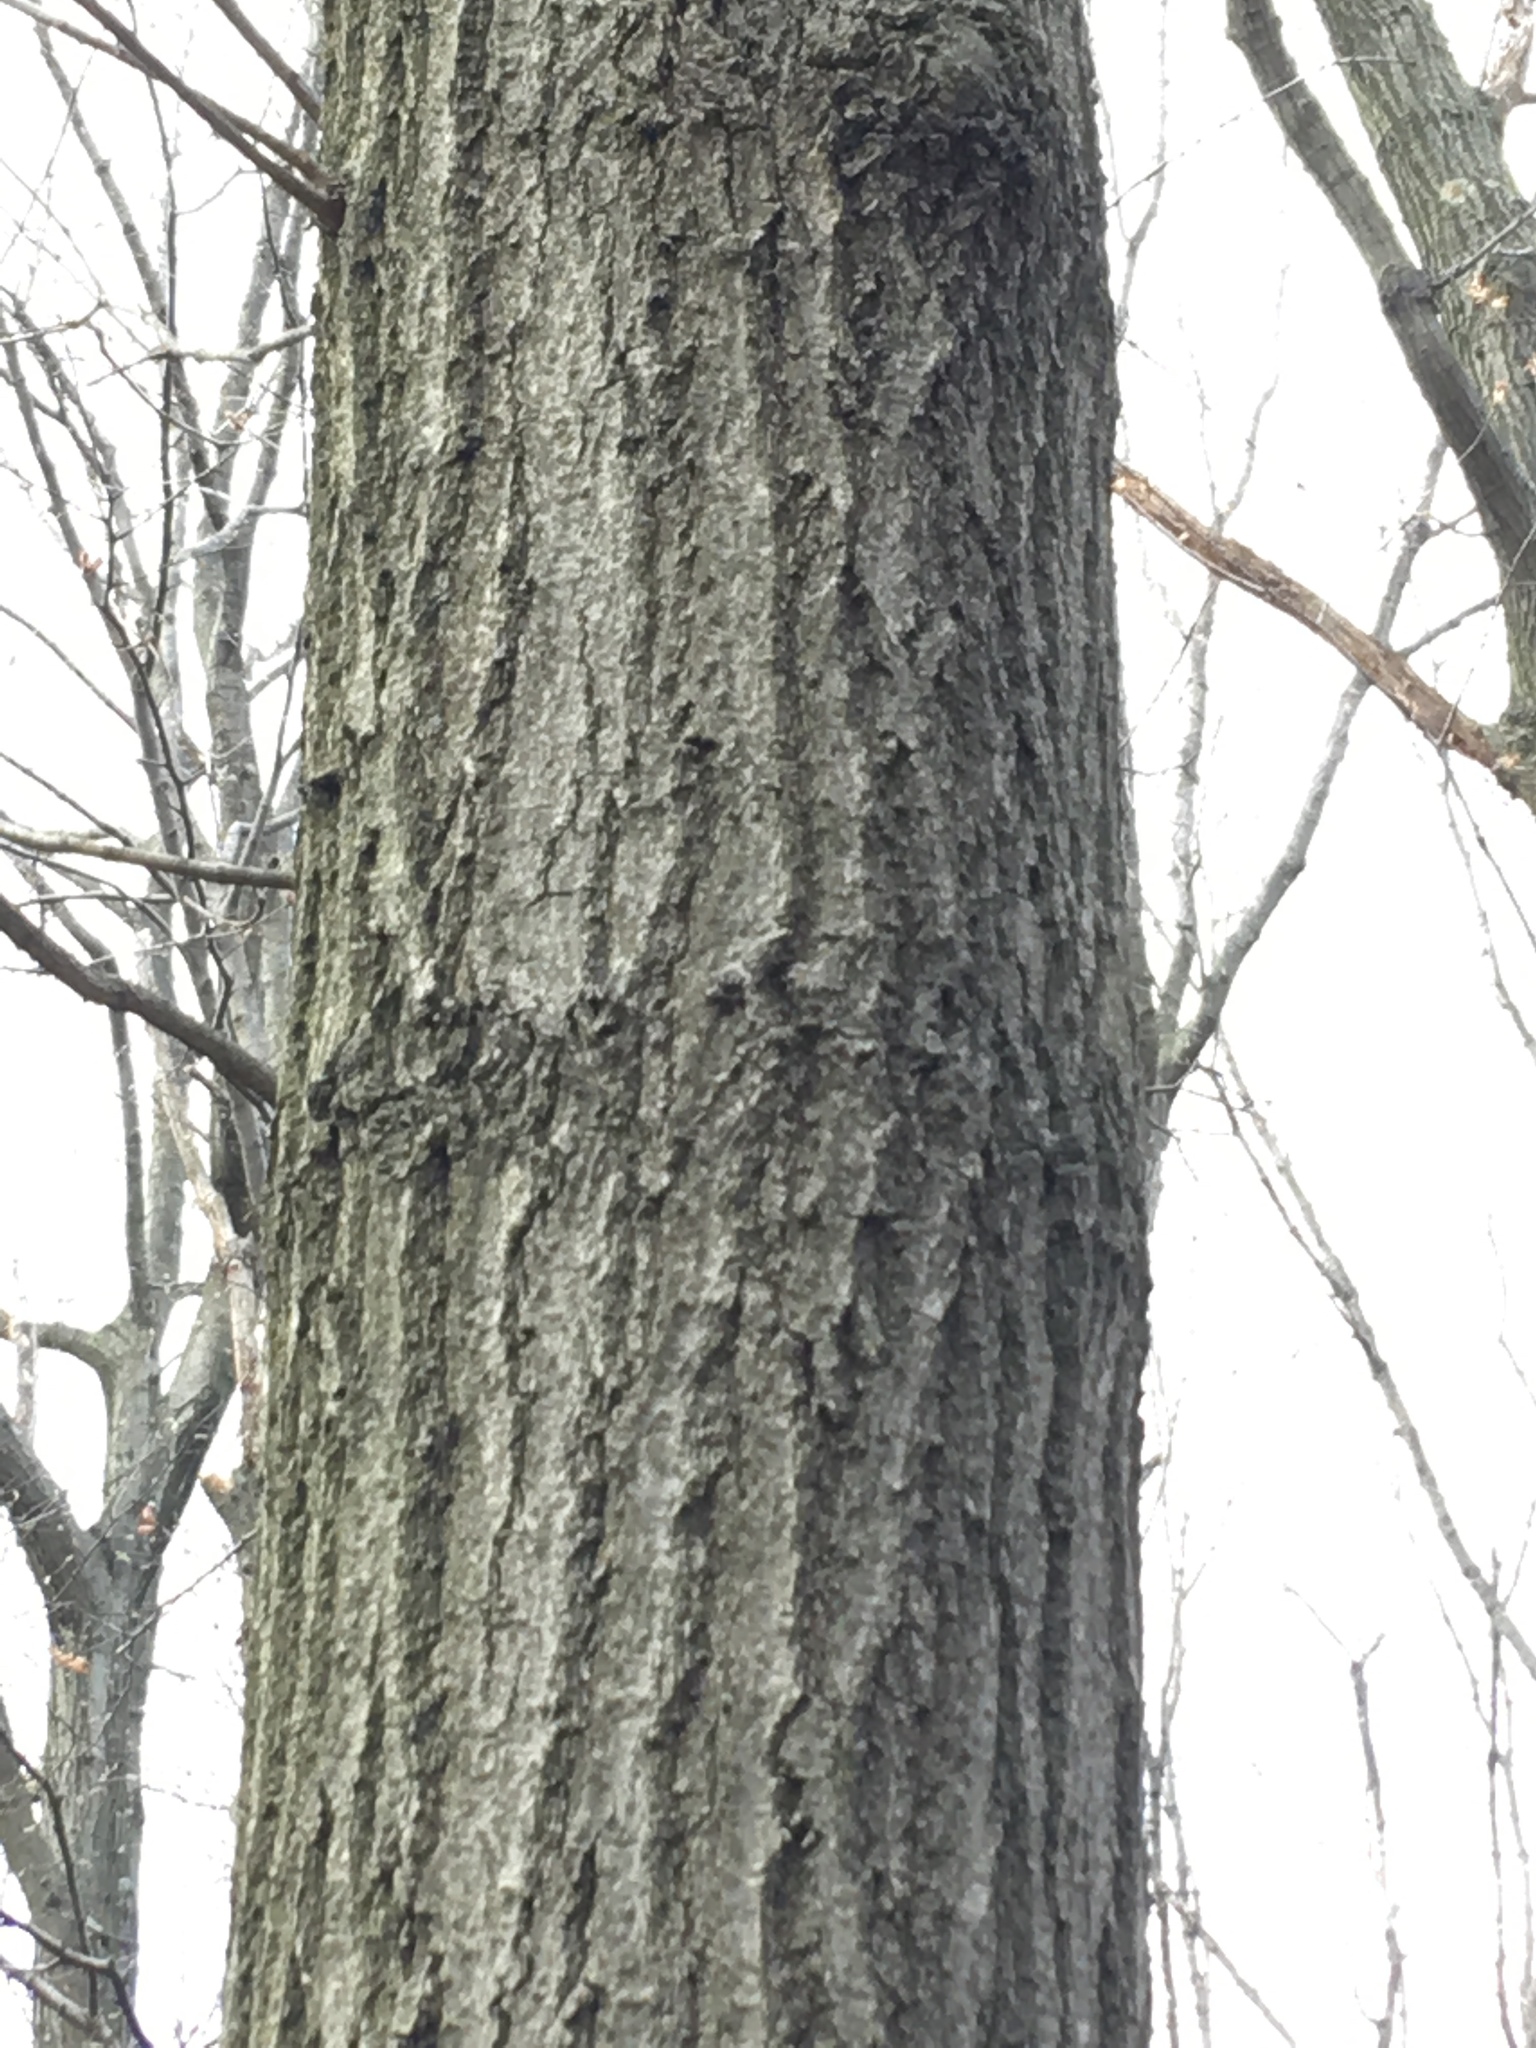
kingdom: Plantae
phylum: Tracheophyta
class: Magnoliopsida
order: Fagales
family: Fagaceae
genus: Quercus
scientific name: Quercus rubra
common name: Red oak
